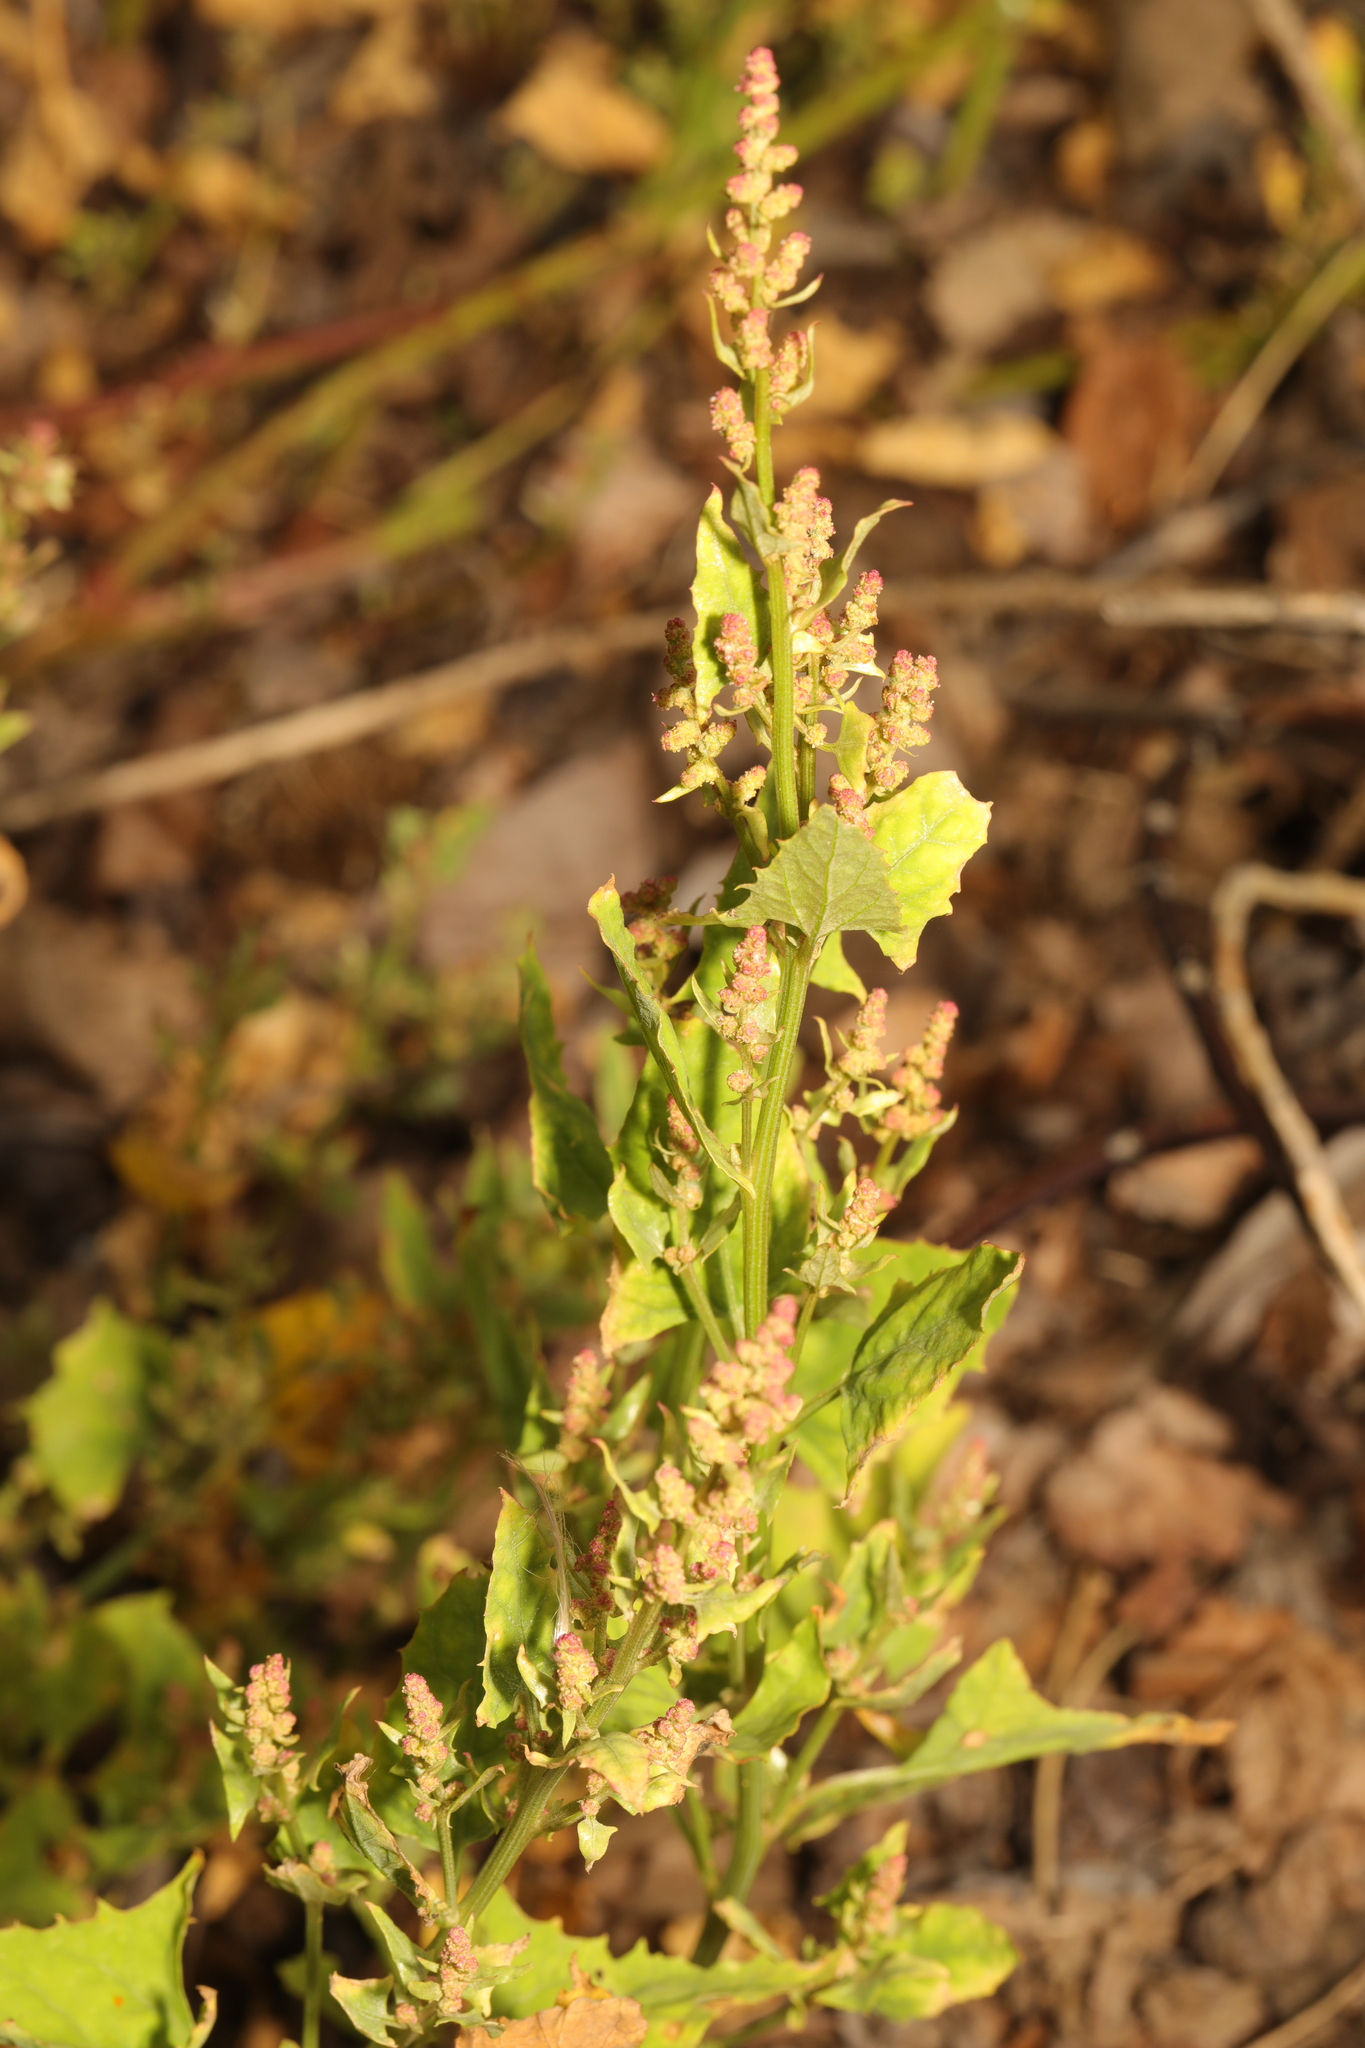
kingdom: Plantae
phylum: Tracheophyta
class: Magnoliopsida
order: Caryophyllales
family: Amaranthaceae
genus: Atriplex
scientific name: Atriplex prostrata
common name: Spear-leaved orache
